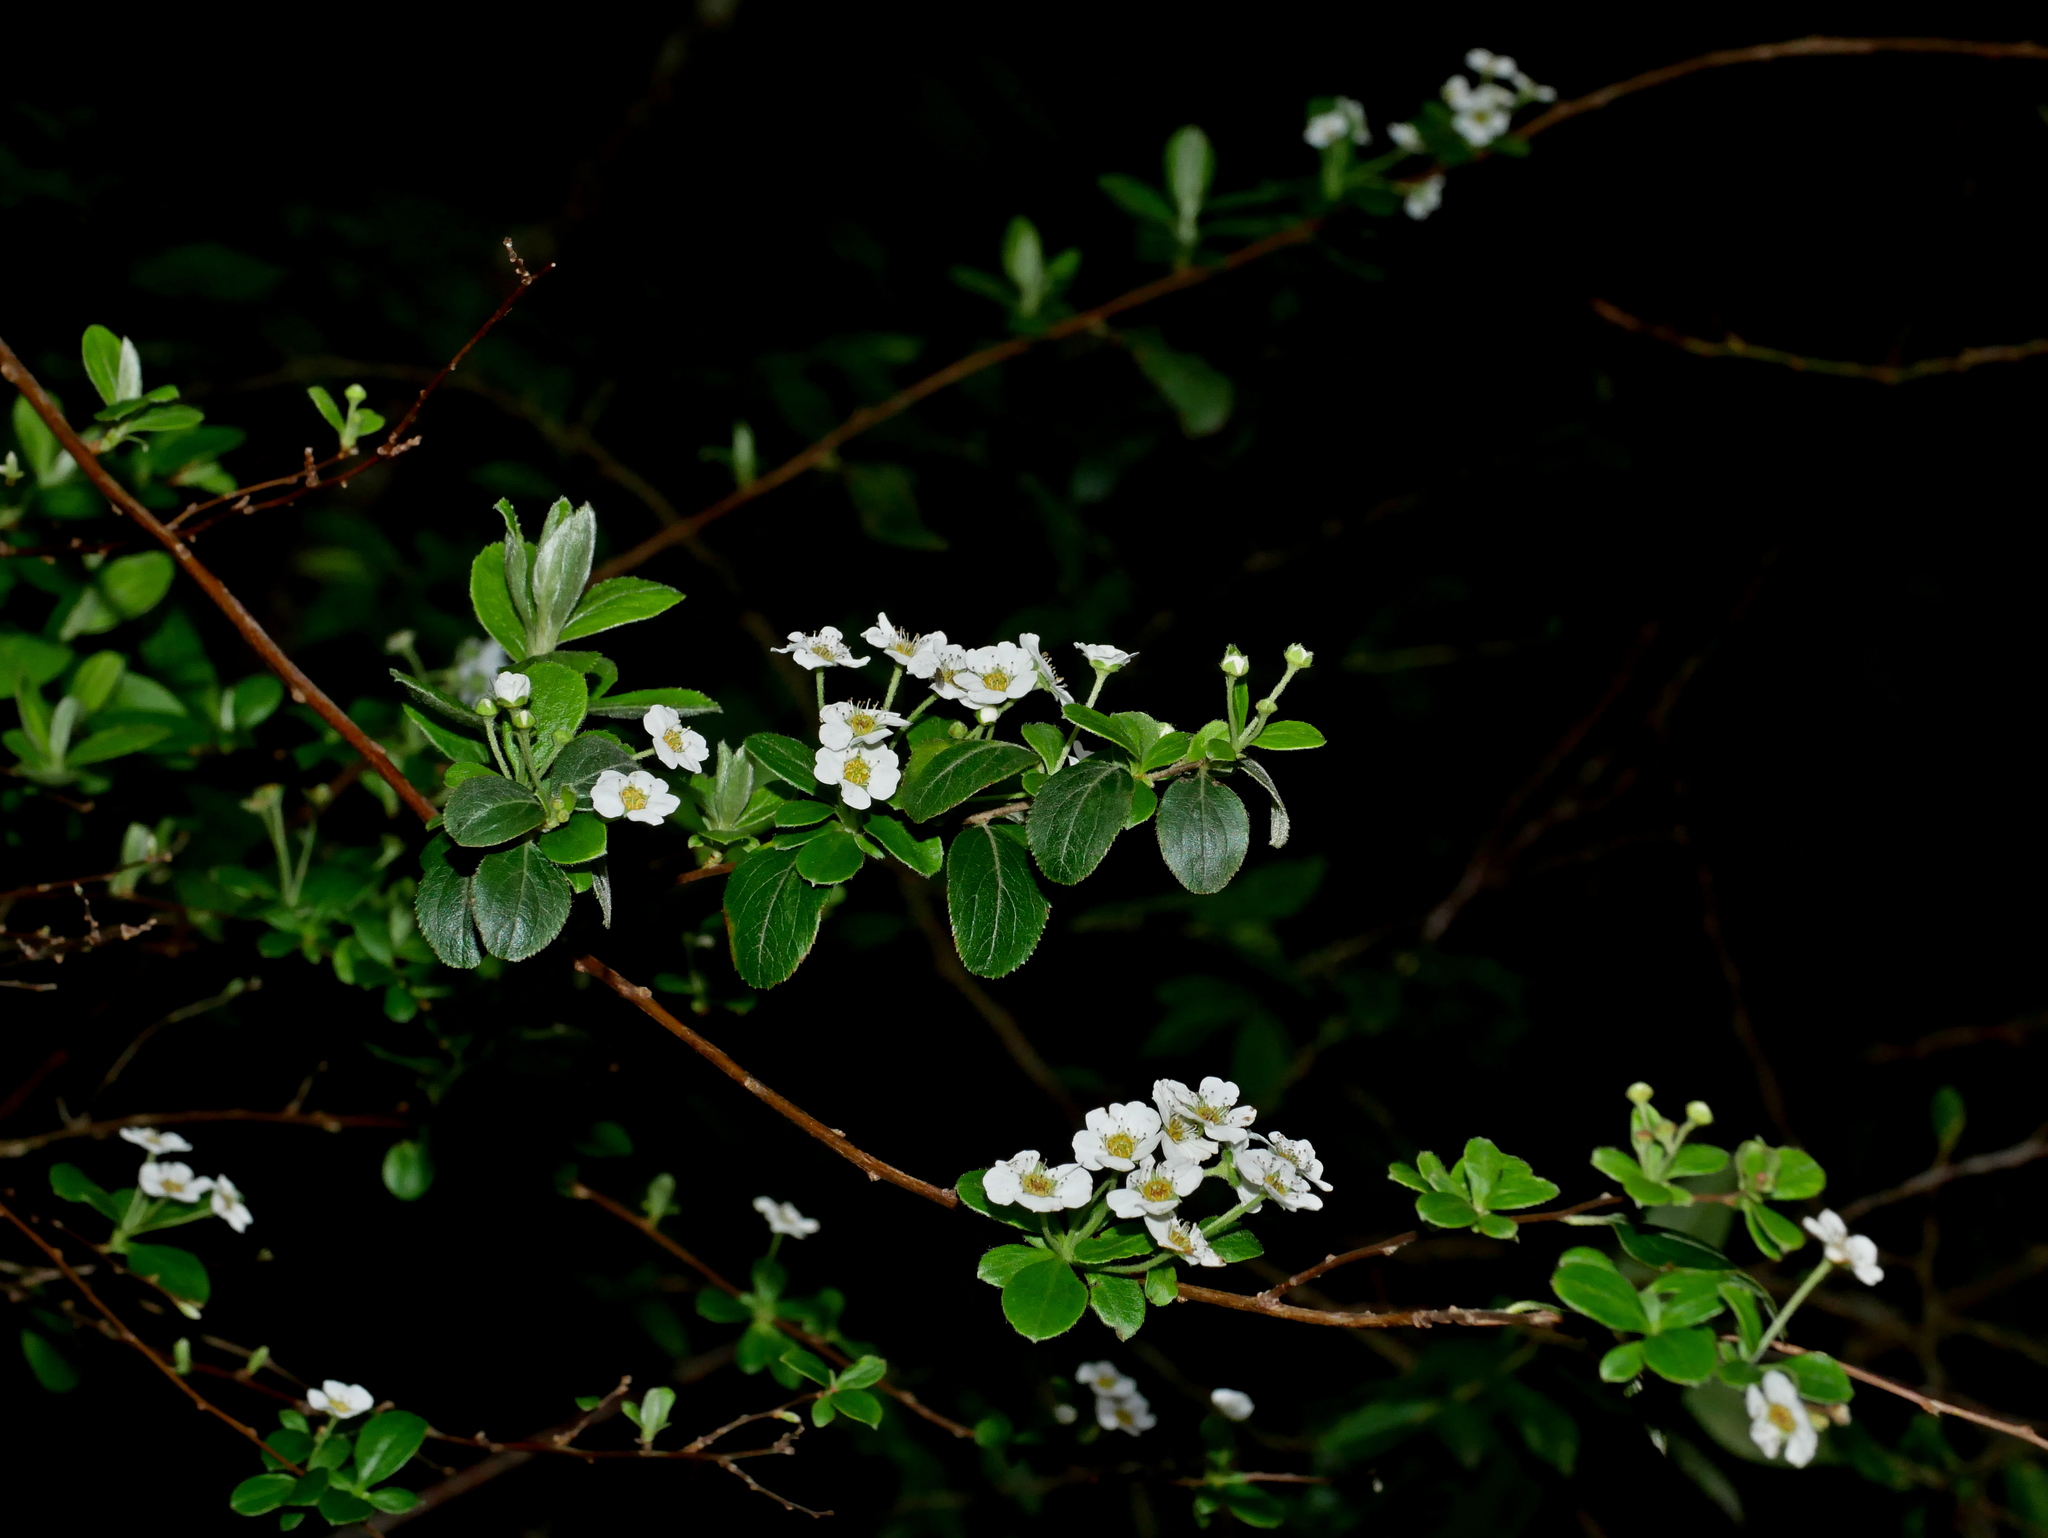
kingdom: Plantae
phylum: Tracheophyta
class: Magnoliopsida
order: Rosales
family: Rosaceae
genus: Spiraea
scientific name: Spiraea prunifolia
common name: Bridal-wreath spiraea
